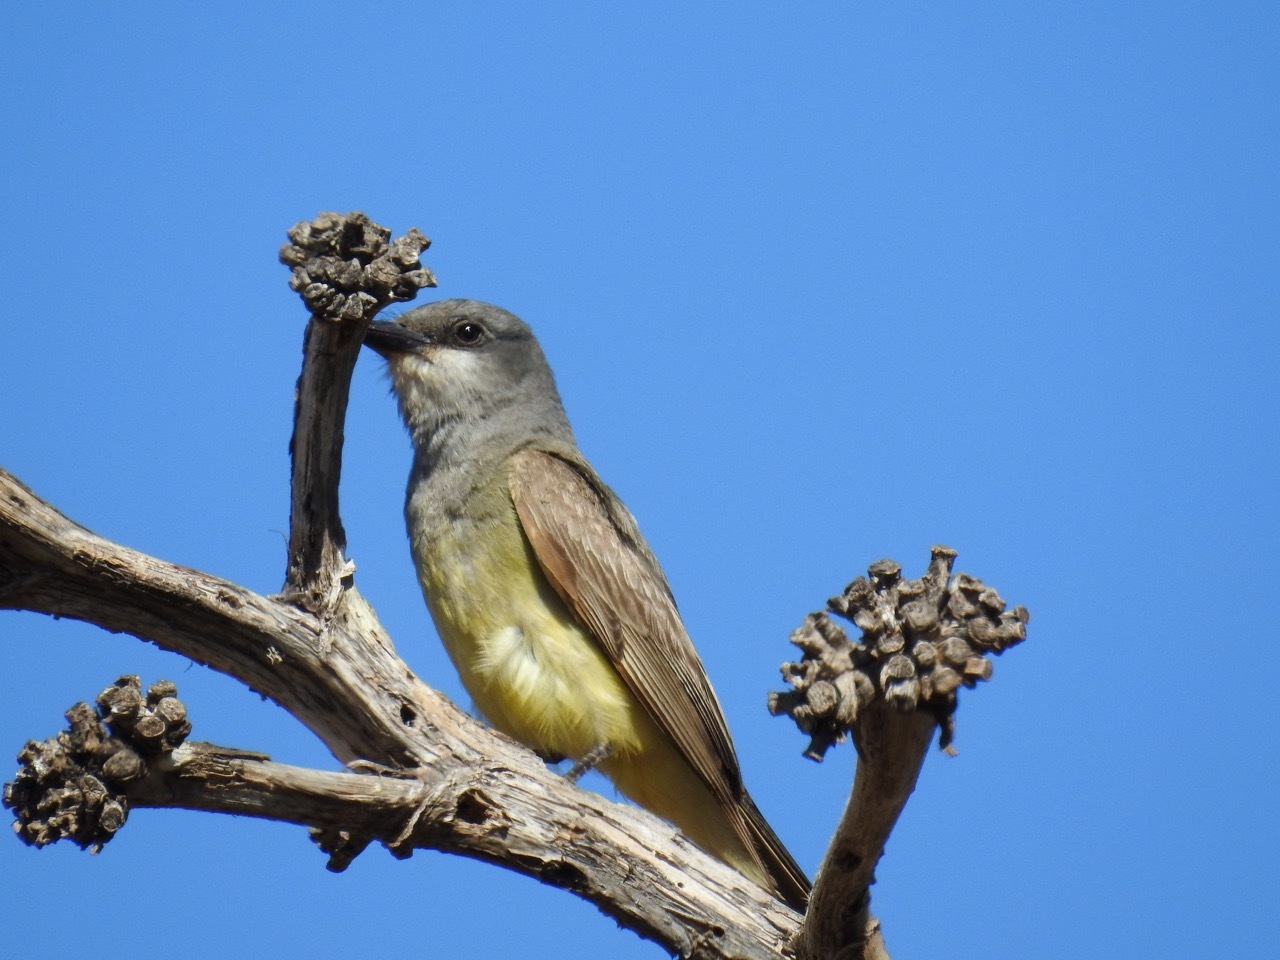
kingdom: Animalia
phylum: Chordata
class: Aves
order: Passeriformes
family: Tyrannidae
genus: Tyrannus
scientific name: Tyrannus vociferans
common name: Cassin's kingbird
